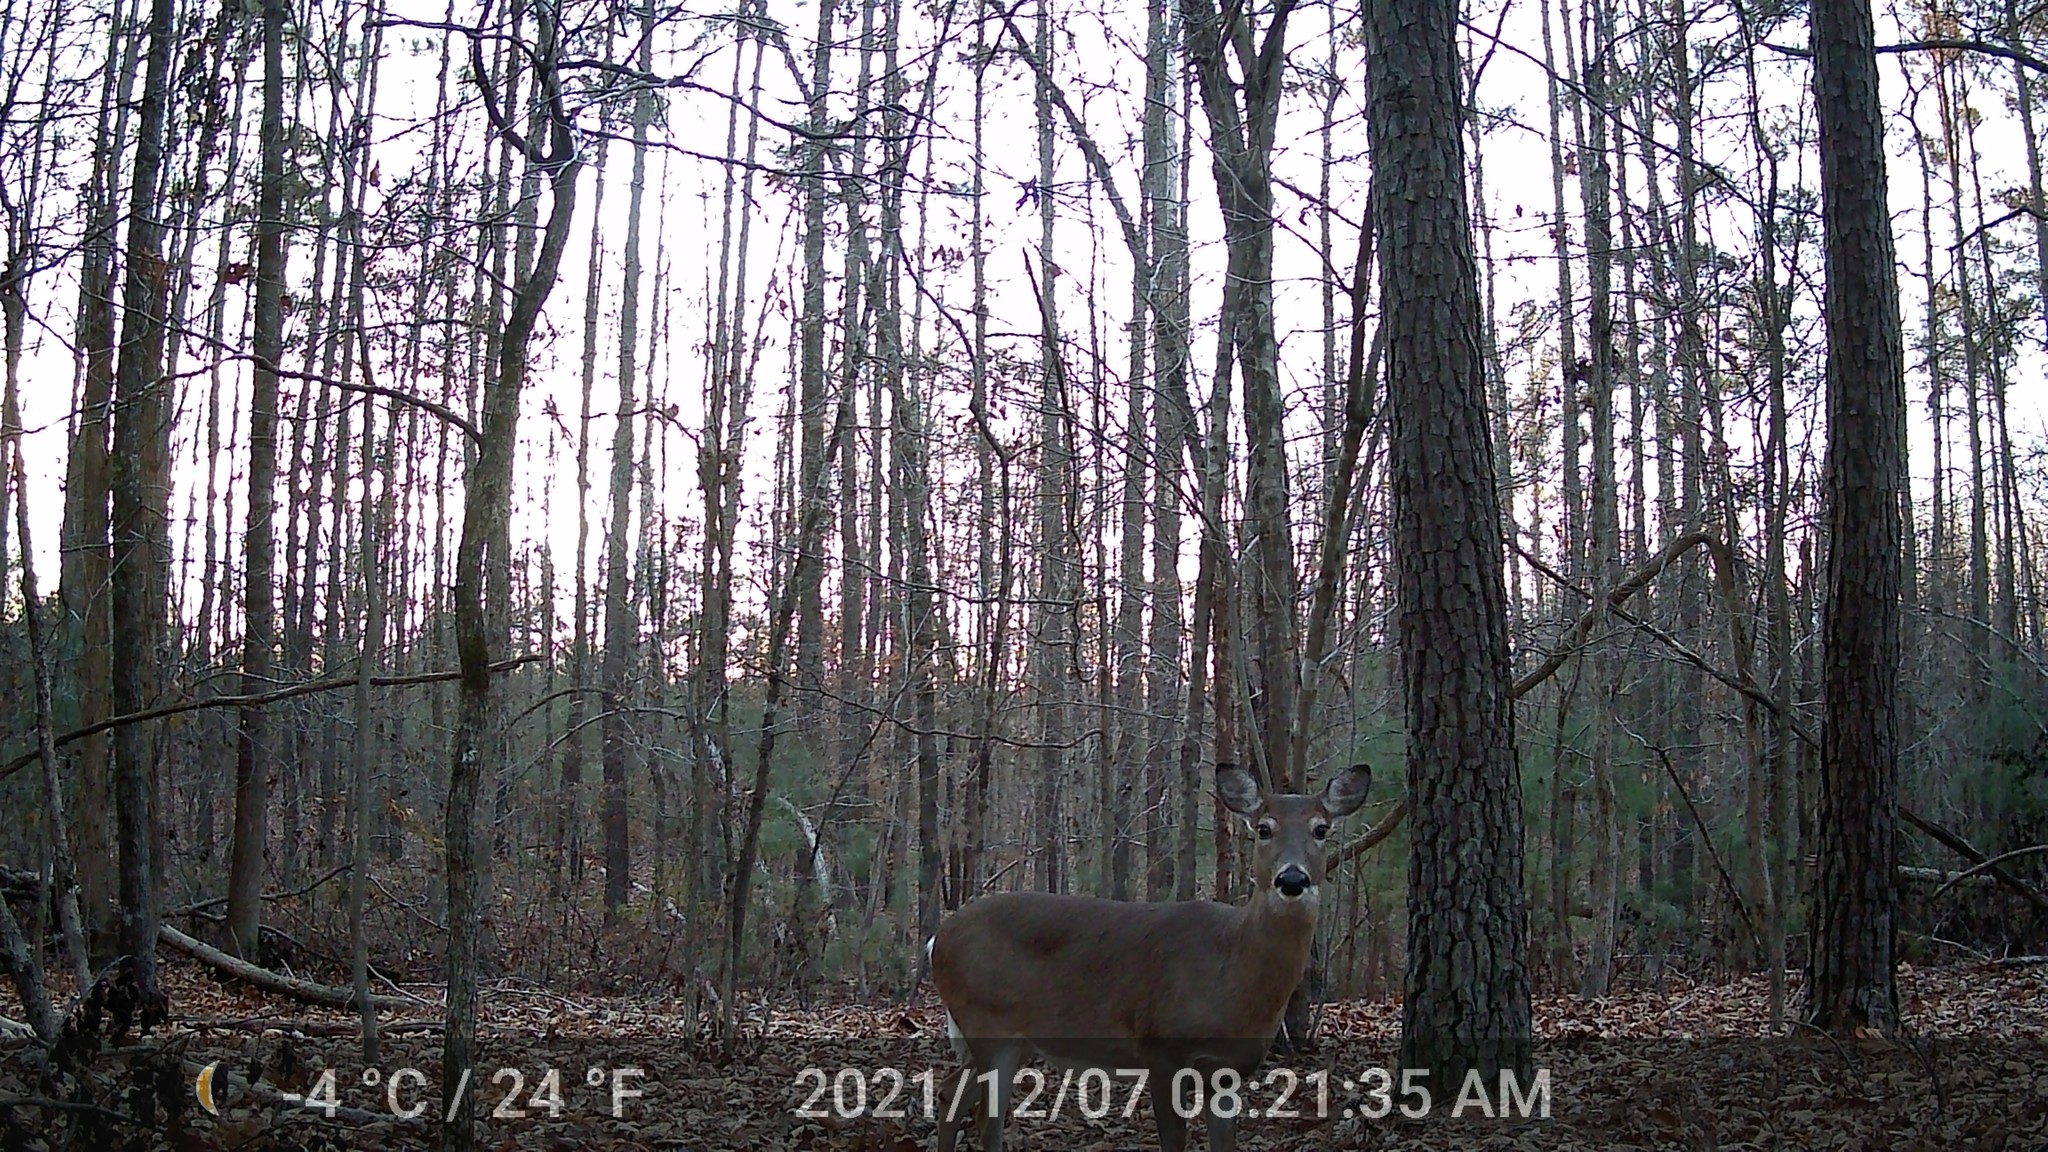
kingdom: Animalia
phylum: Chordata
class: Mammalia
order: Artiodactyla
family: Cervidae
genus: Odocoileus
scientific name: Odocoileus virginianus
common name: White-tailed deer
